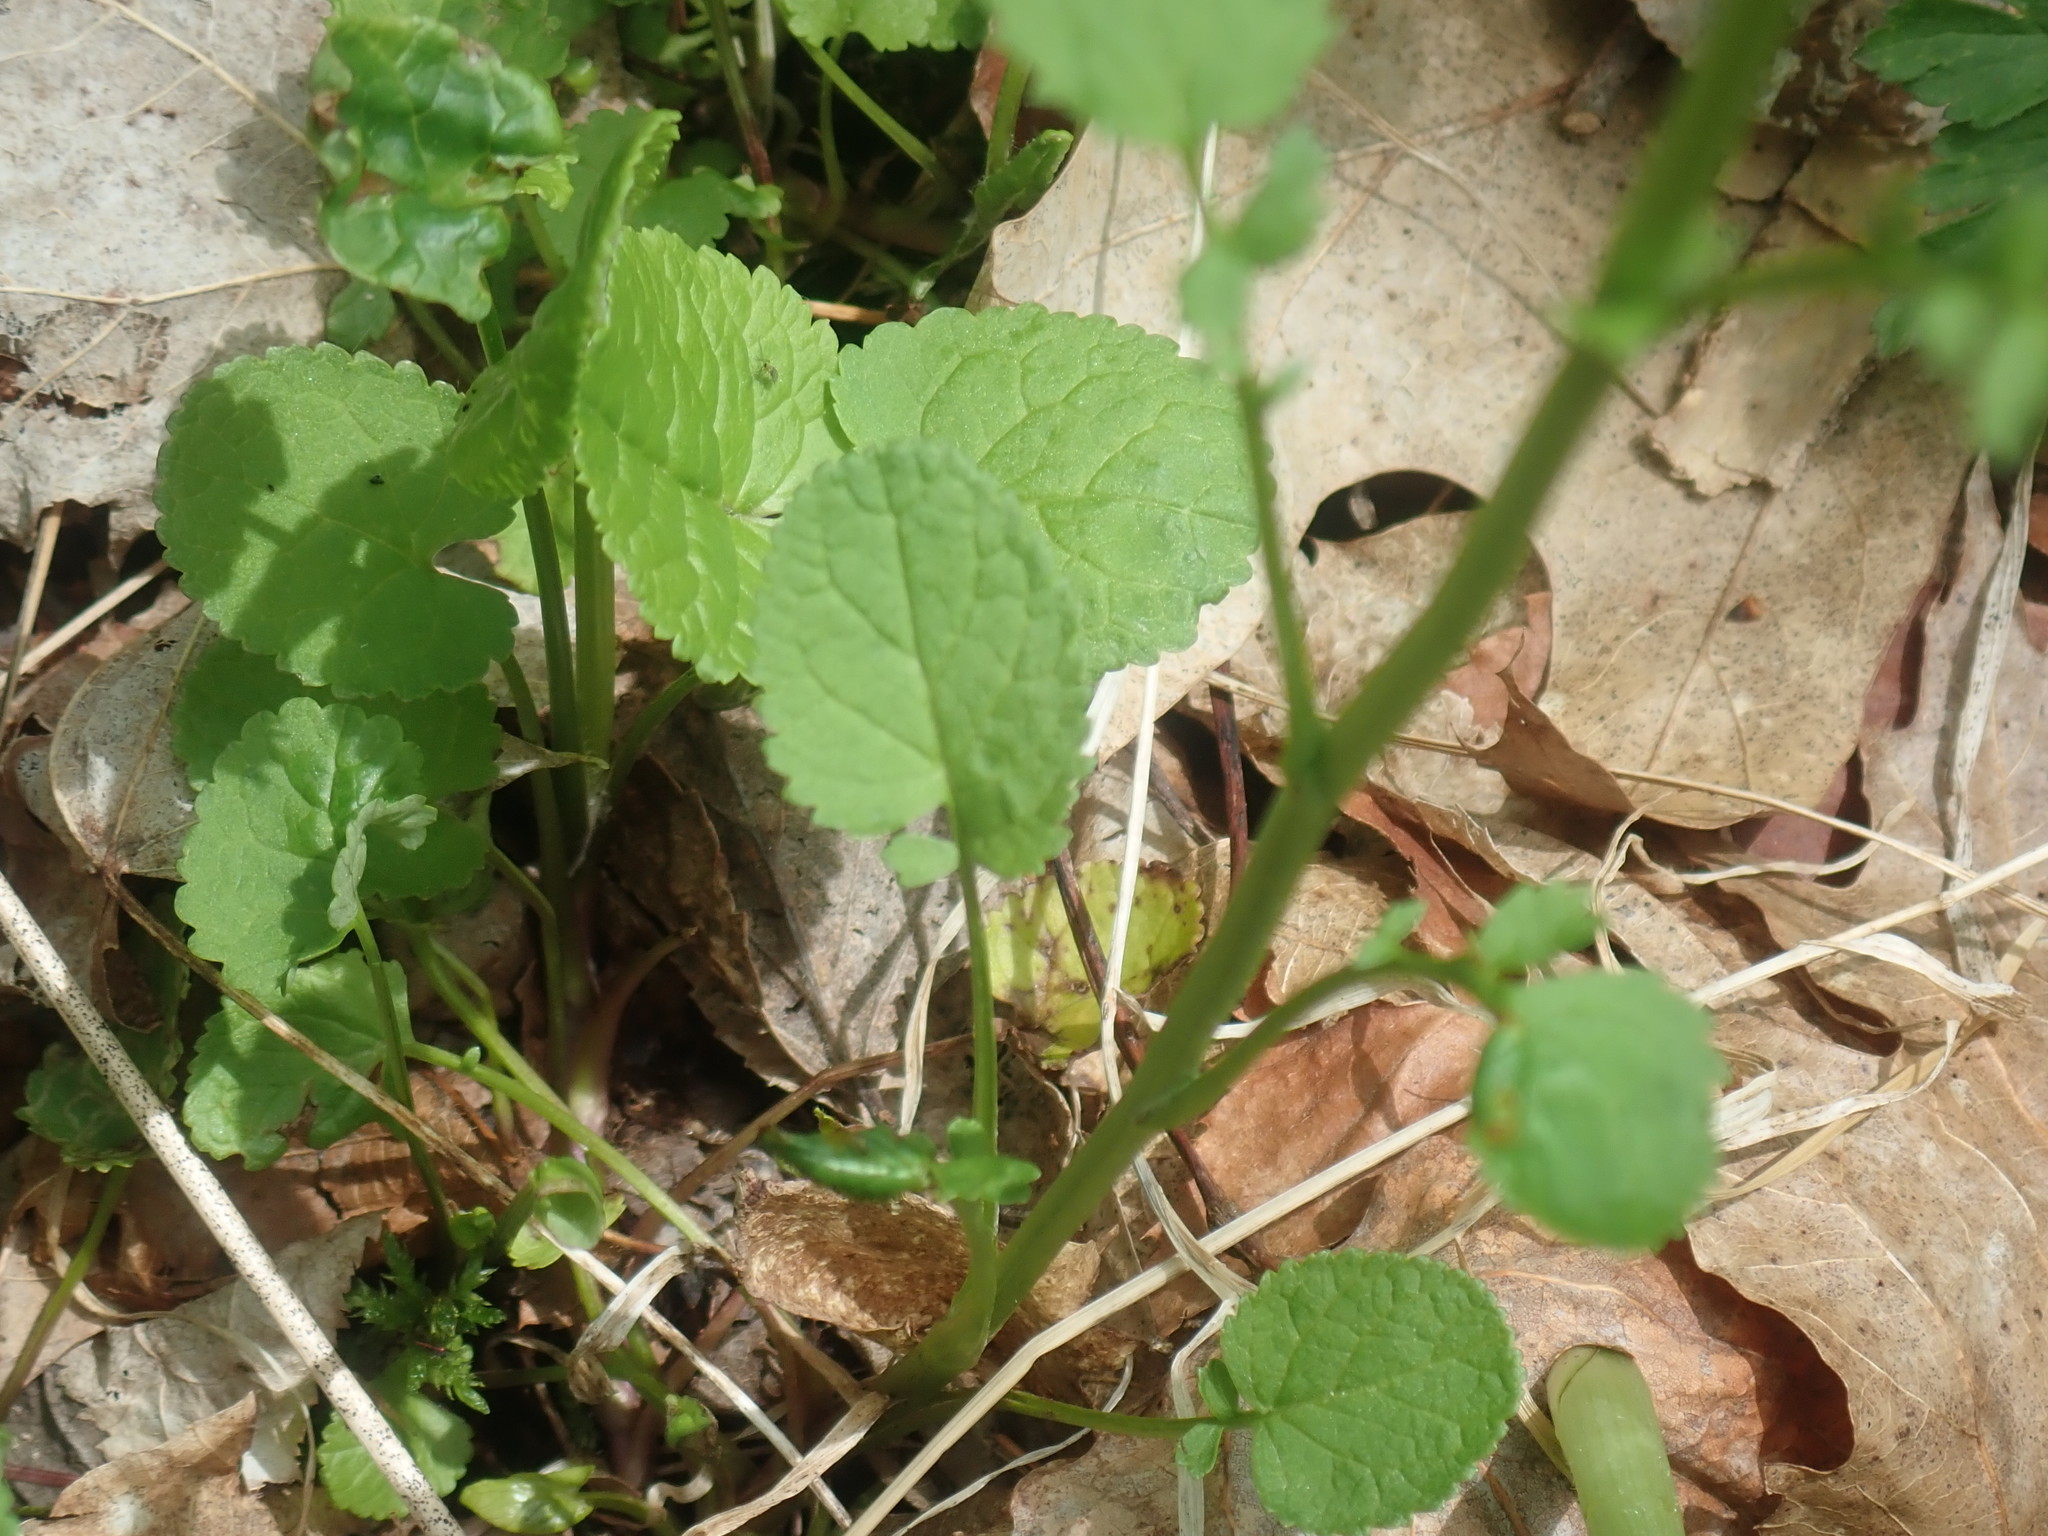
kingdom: Plantae
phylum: Tracheophyta
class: Magnoliopsida
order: Asterales
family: Asteraceae
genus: Packera
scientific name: Packera obovata
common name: Round-leaf ragwort
